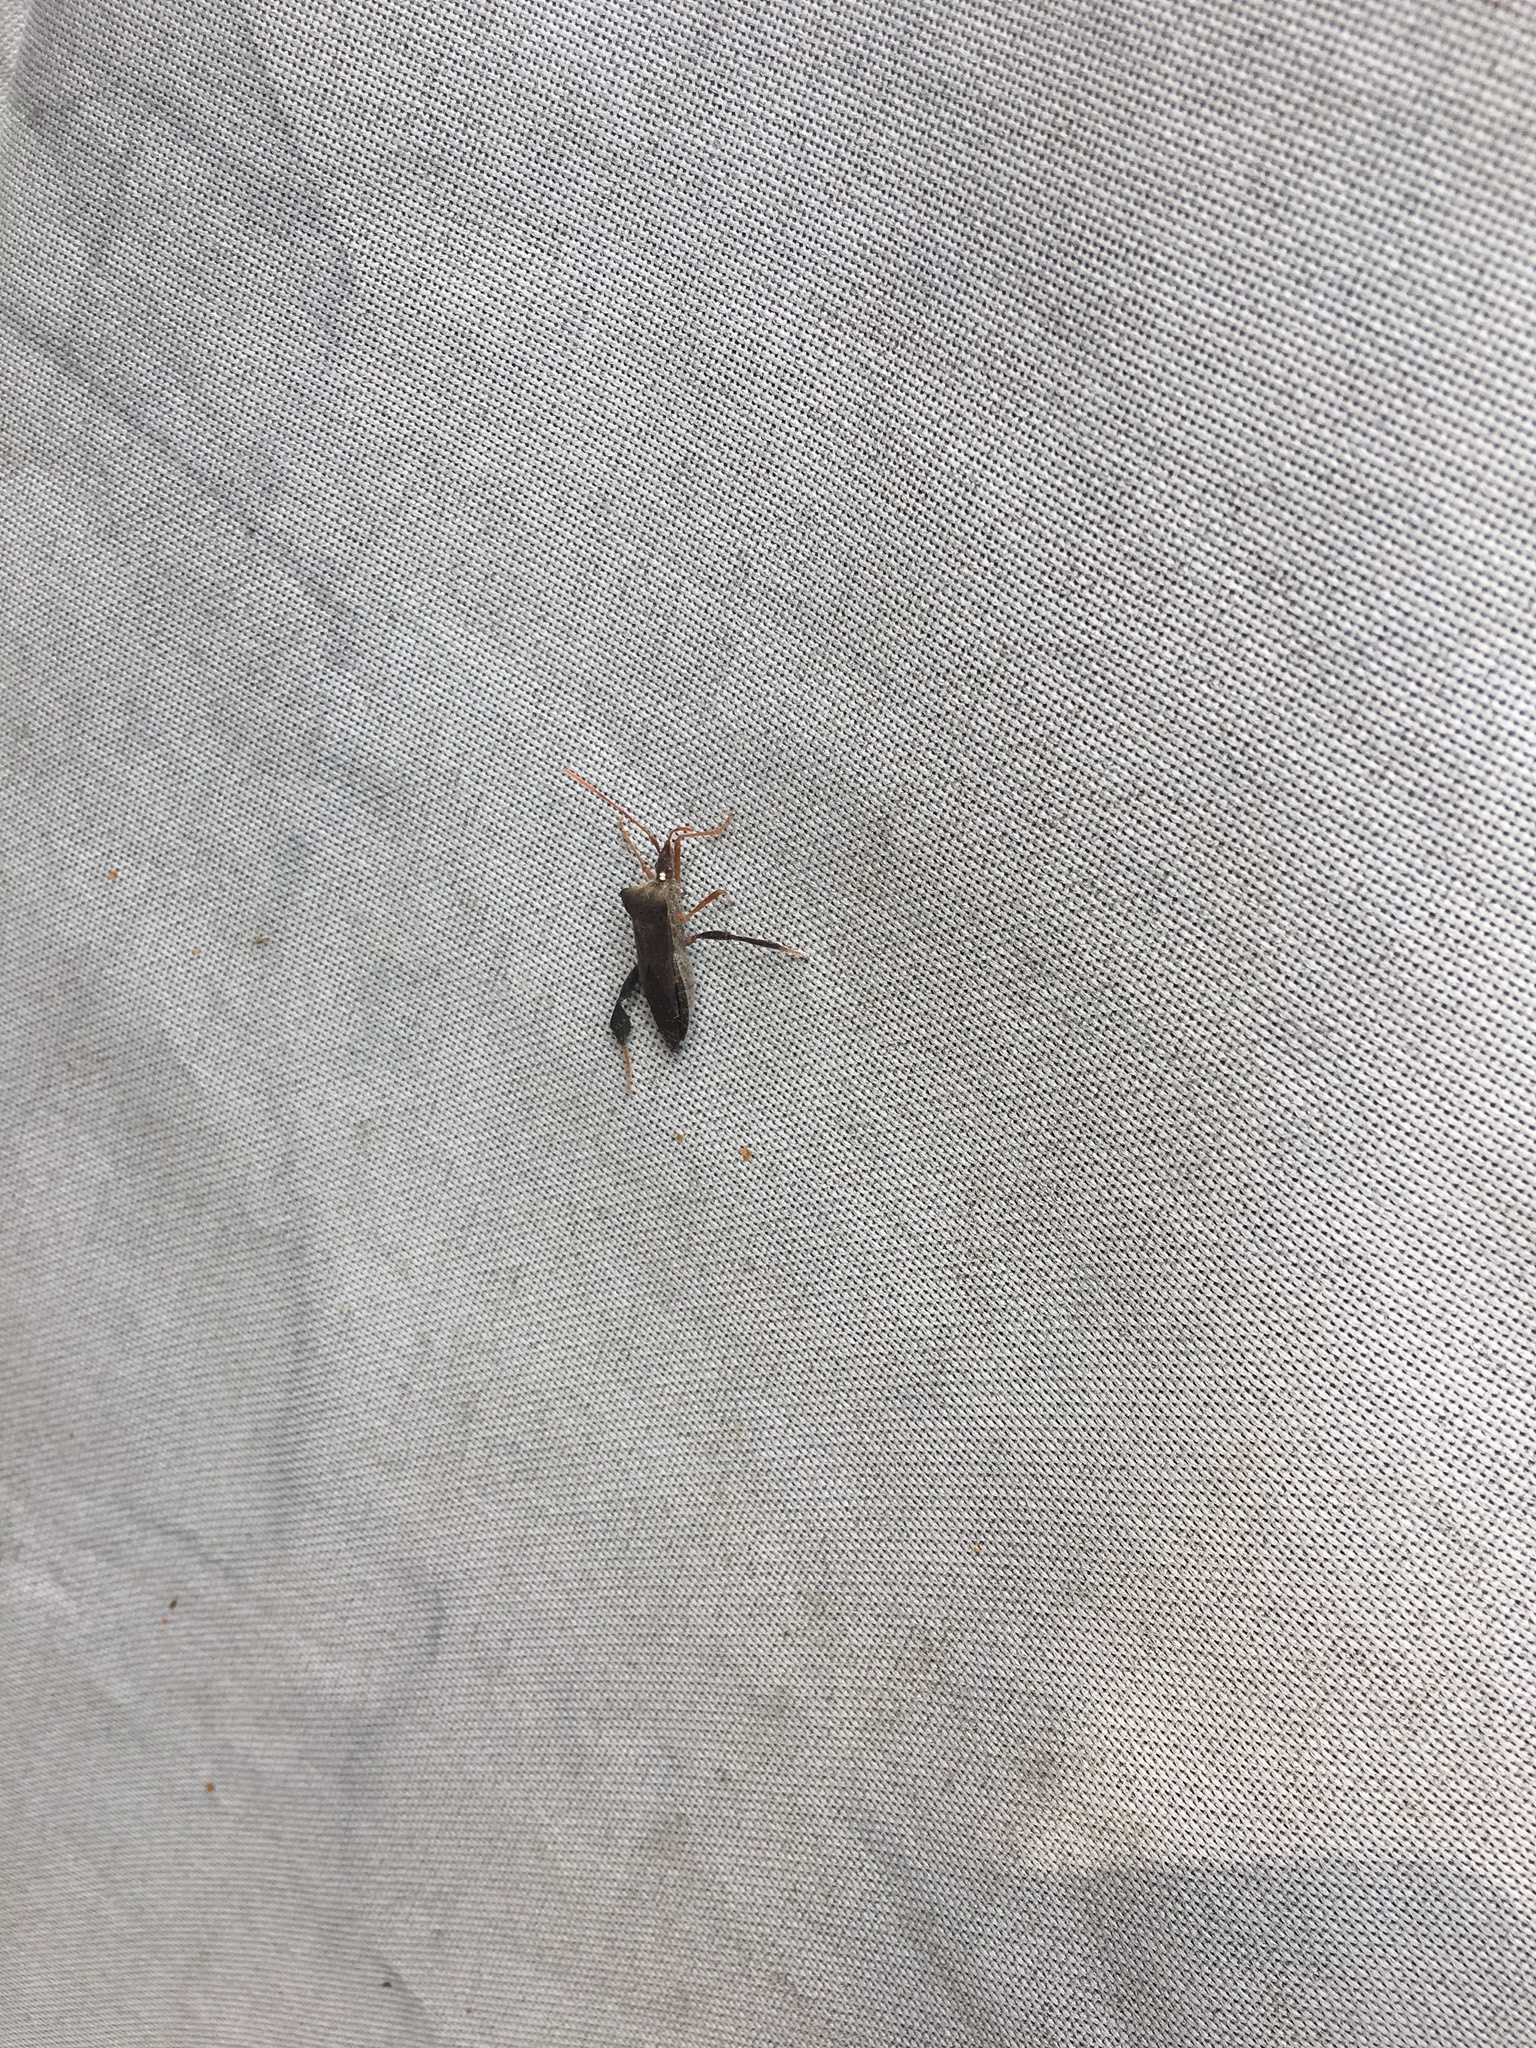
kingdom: Animalia
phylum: Arthropoda
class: Insecta
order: Hemiptera
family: Coreidae
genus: Leptoglossus
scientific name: Leptoglossus fulvicornis
